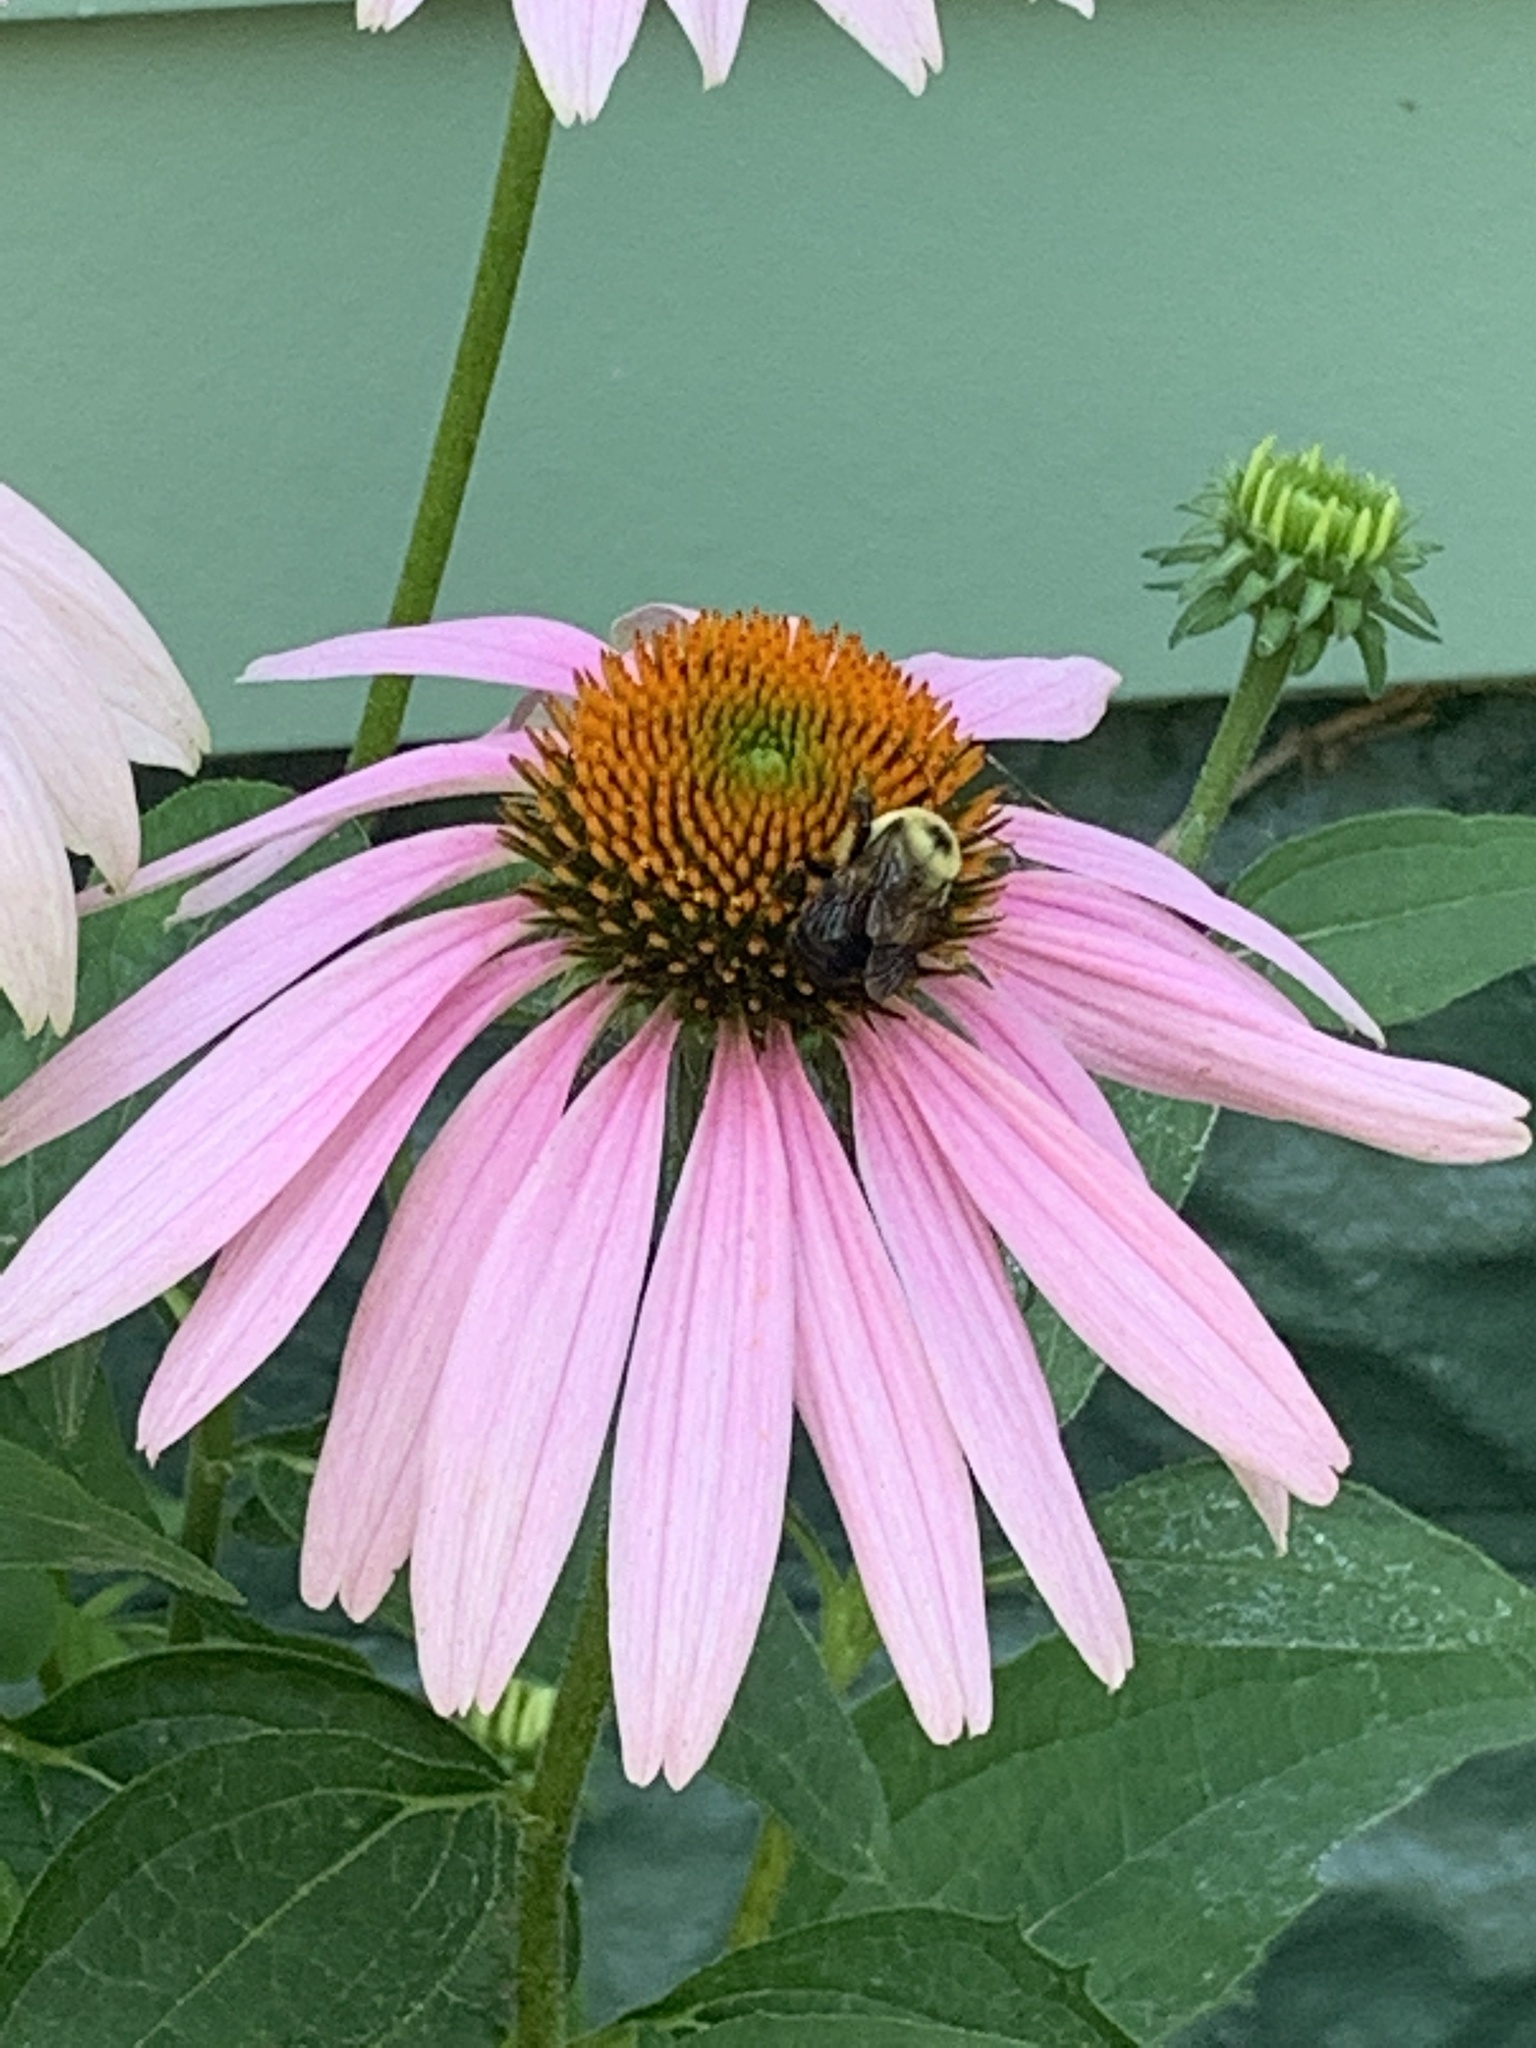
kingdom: Animalia
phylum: Arthropoda
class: Insecta
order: Hymenoptera
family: Apidae
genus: Bombus
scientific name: Bombus griseocollis
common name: Brown-belted bumble bee
